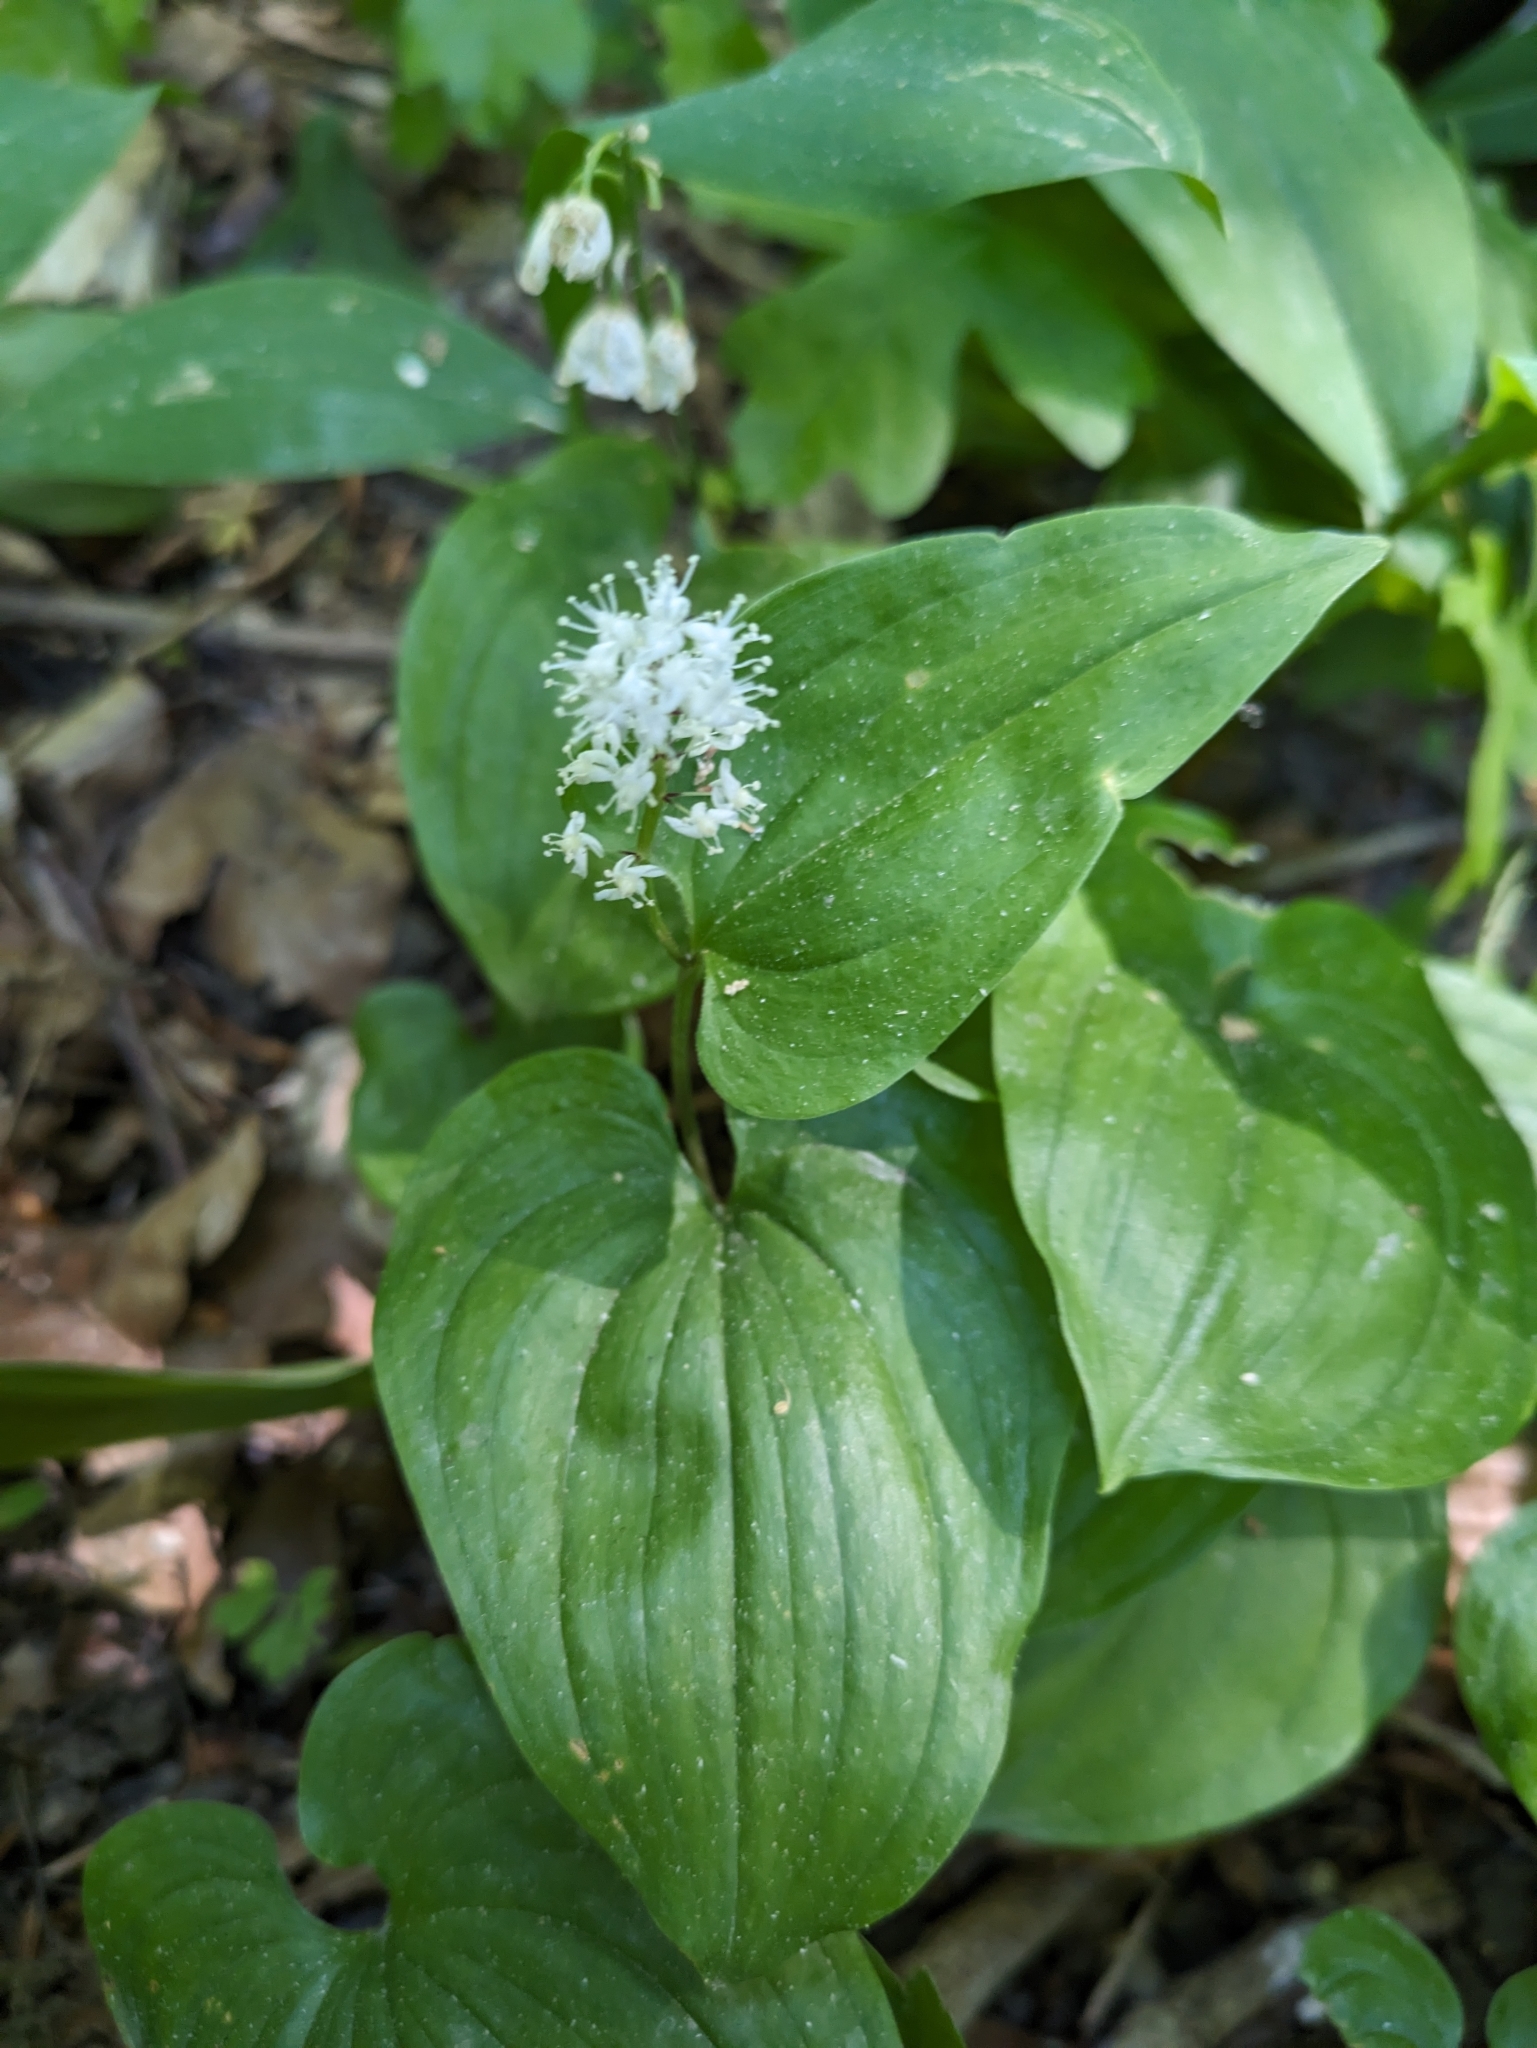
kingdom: Plantae
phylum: Tracheophyta
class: Liliopsida
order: Asparagales
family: Asparagaceae
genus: Maianthemum
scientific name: Maianthemum bifolium
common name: May lily
